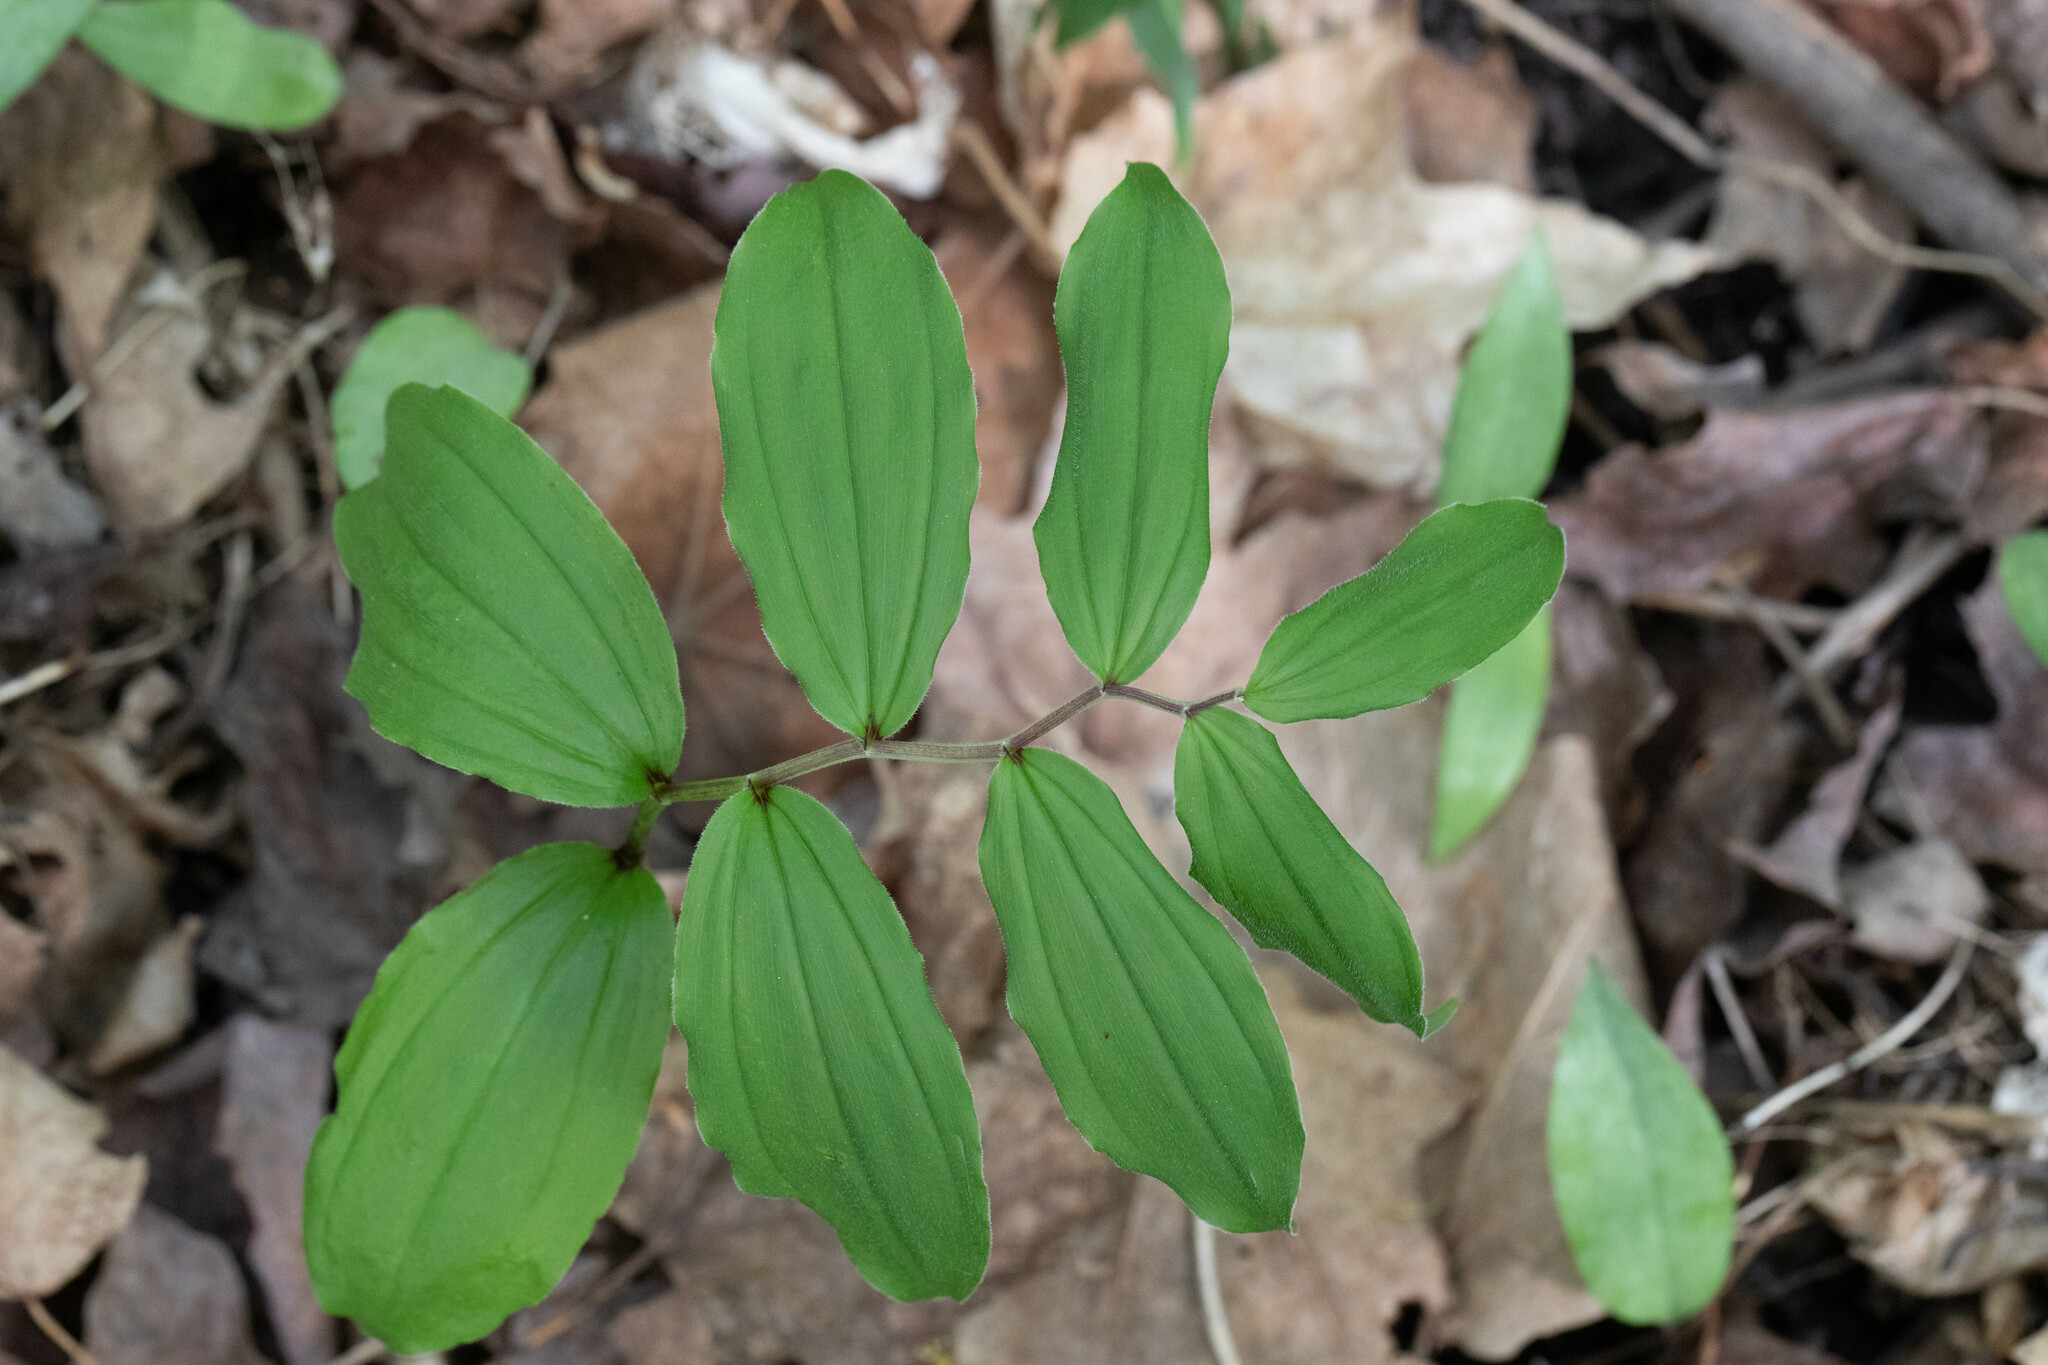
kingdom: Plantae
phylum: Tracheophyta
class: Liliopsida
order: Asparagales
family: Asparagaceae
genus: Maianthemum
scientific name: Maianthemum racemosum
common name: False spikenard
